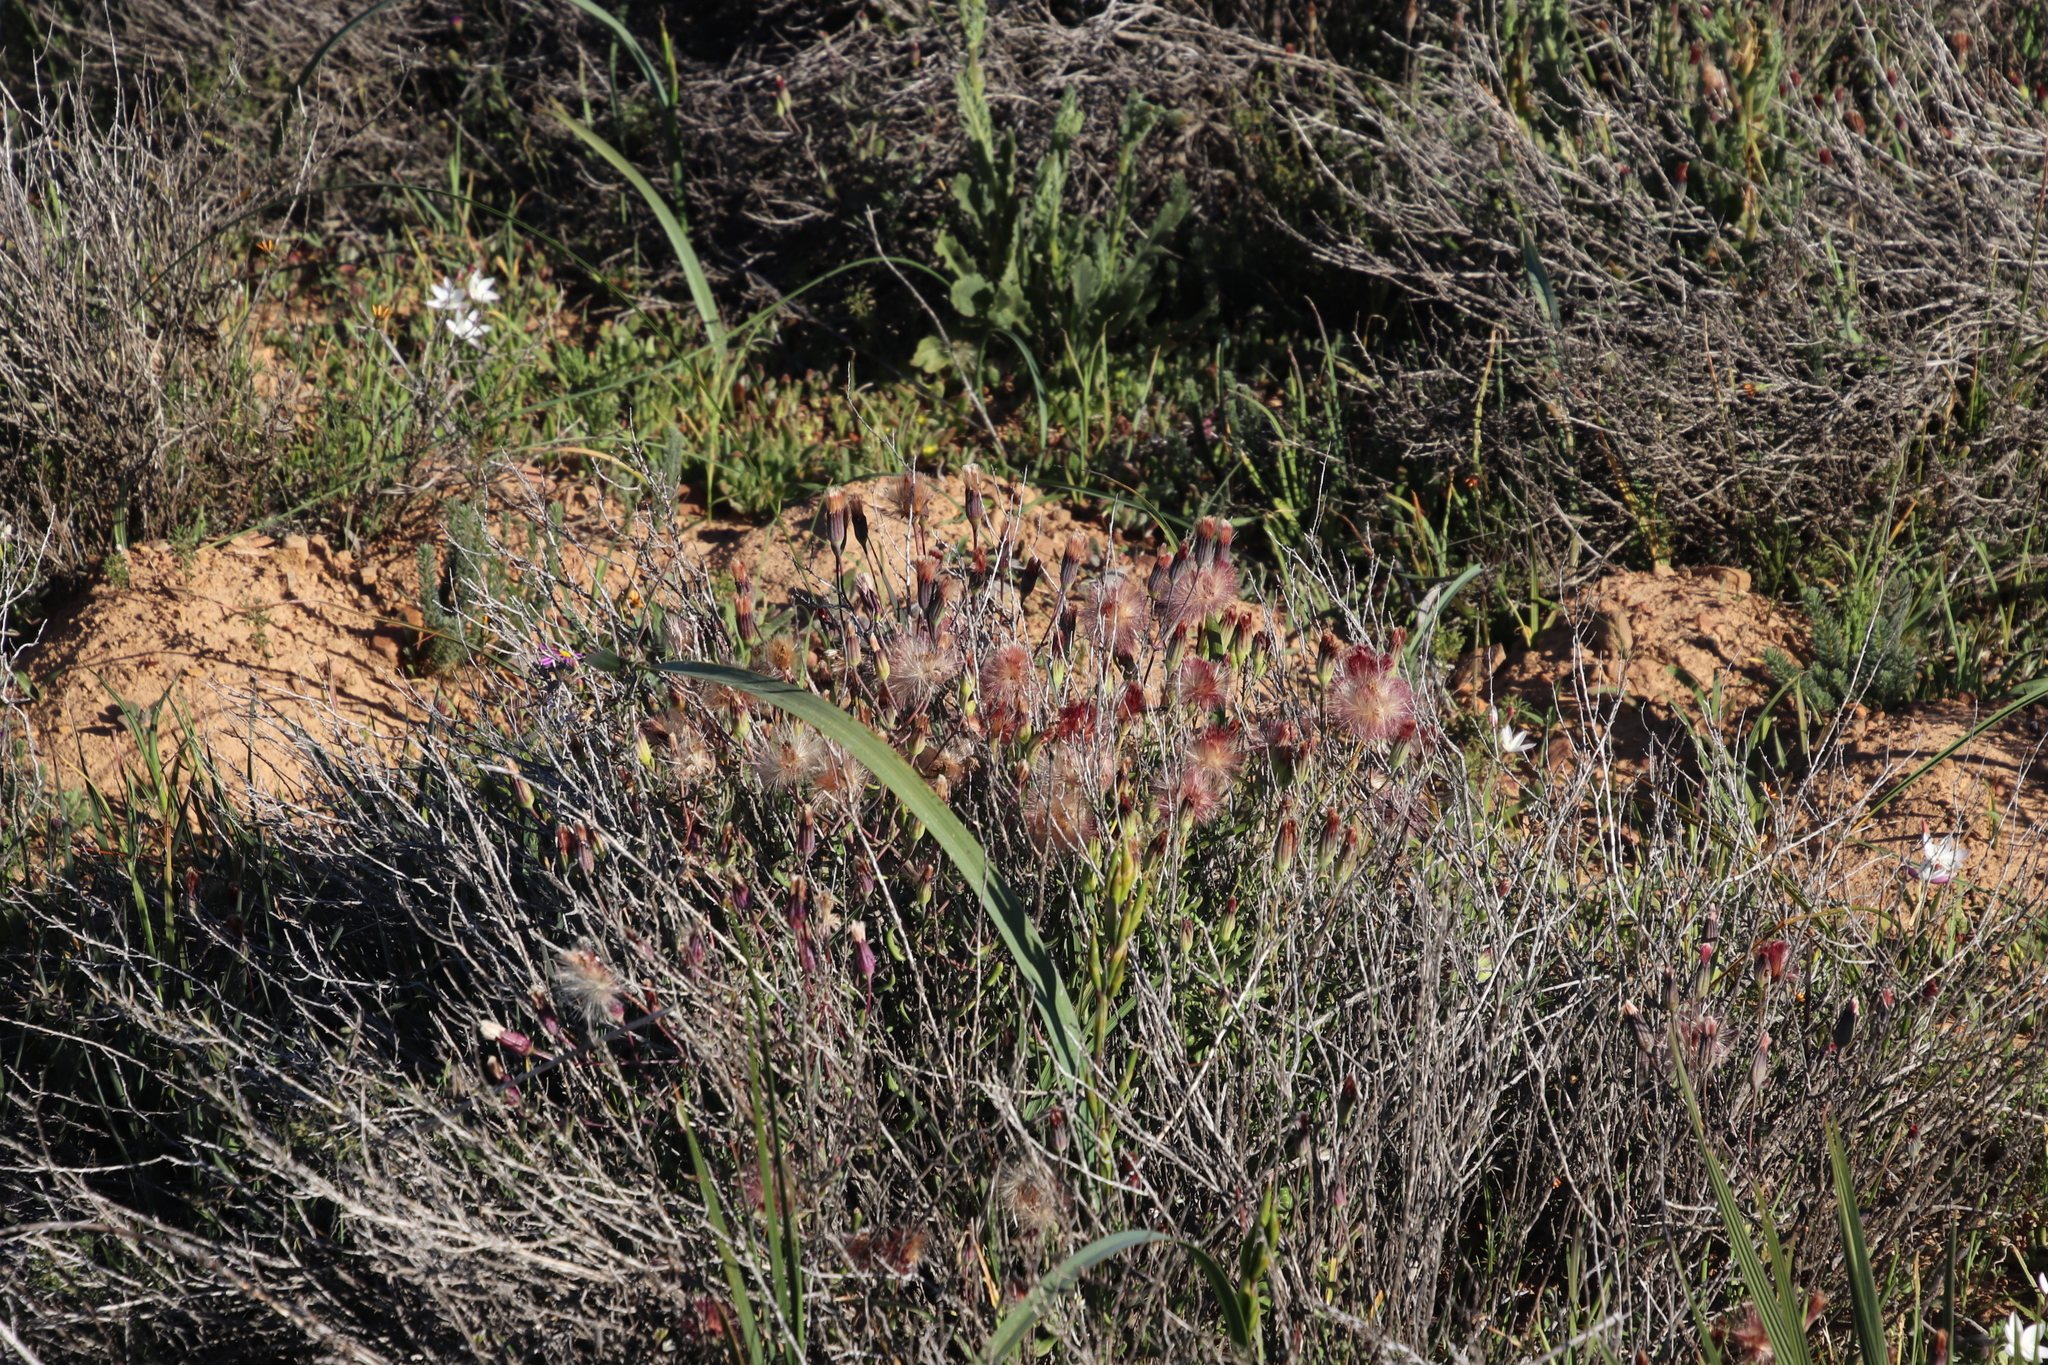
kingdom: Plantae
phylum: Tracheophyta
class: Magnoliopsida
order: Asterales
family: Asteraceae
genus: Othonna
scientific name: Othonna undulosa
